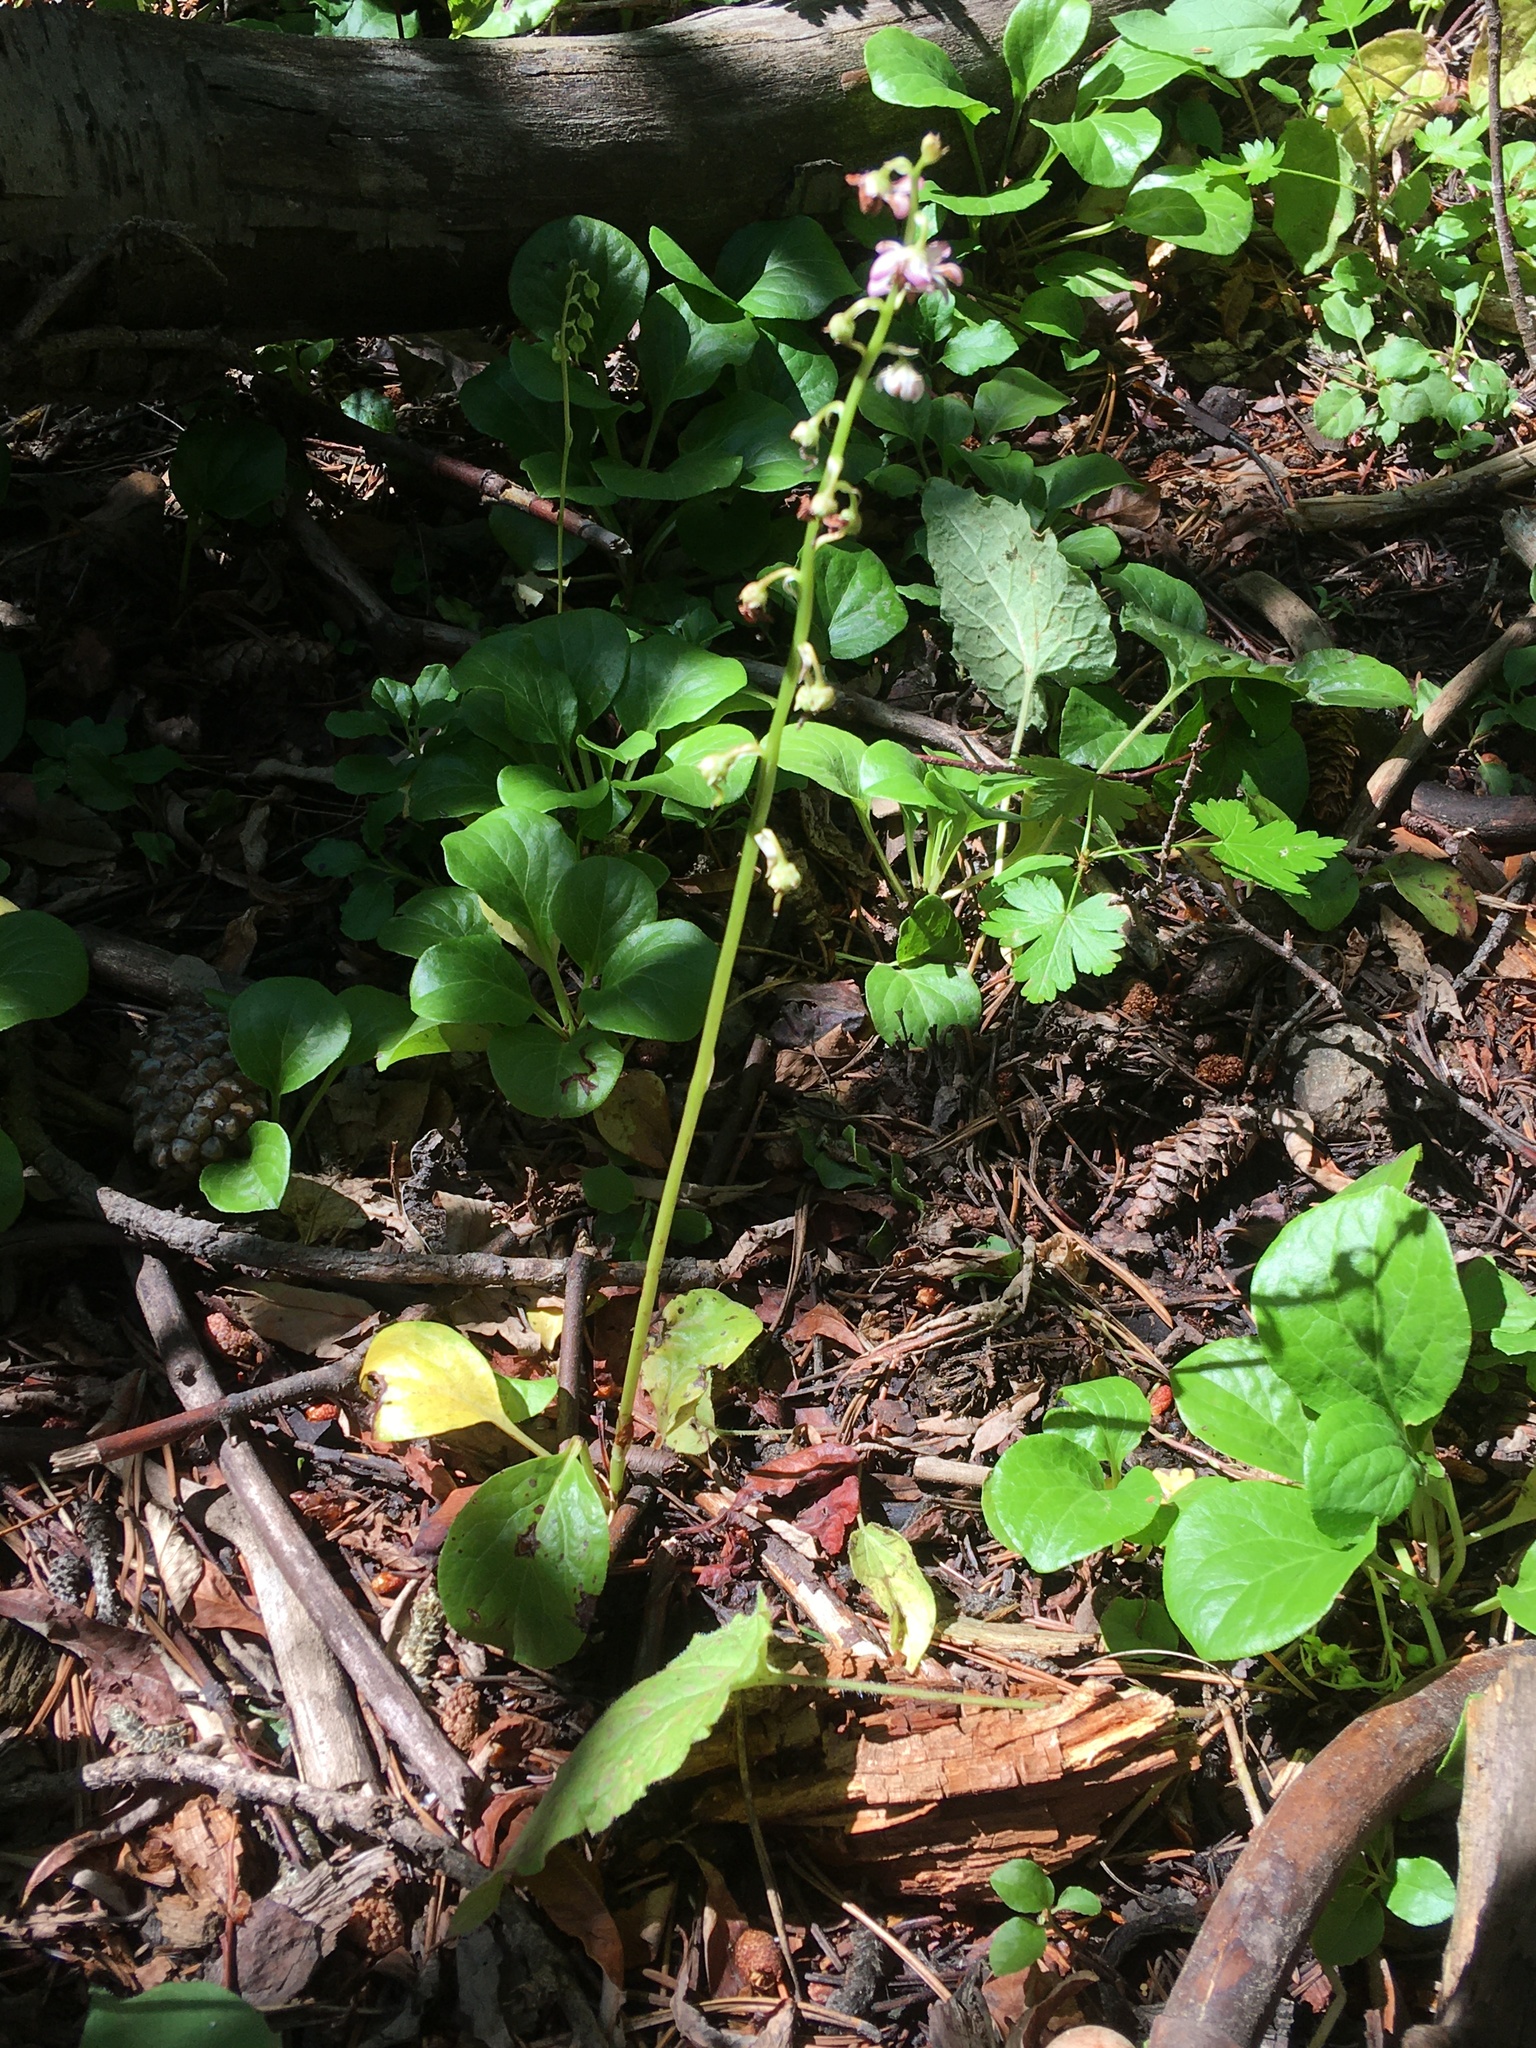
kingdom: Plantae
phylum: Tracheophyta
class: Magnoliopsida
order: Ericales
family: Ericaceae
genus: Pyrola
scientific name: Pyrola asarifolia
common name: Bog wintergreen
